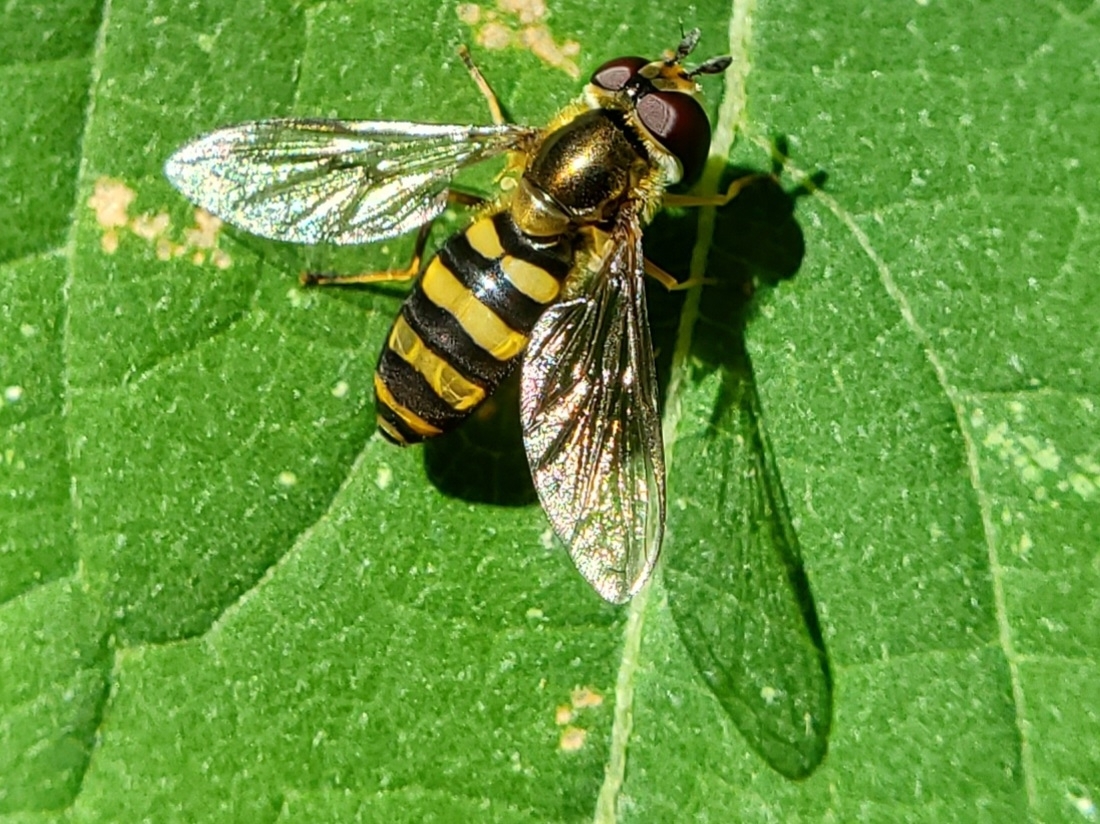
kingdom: Animalia
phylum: Arthropoda
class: Insecta
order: Diptera
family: Syrphidae
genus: Eupeodes
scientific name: Eupeodes
